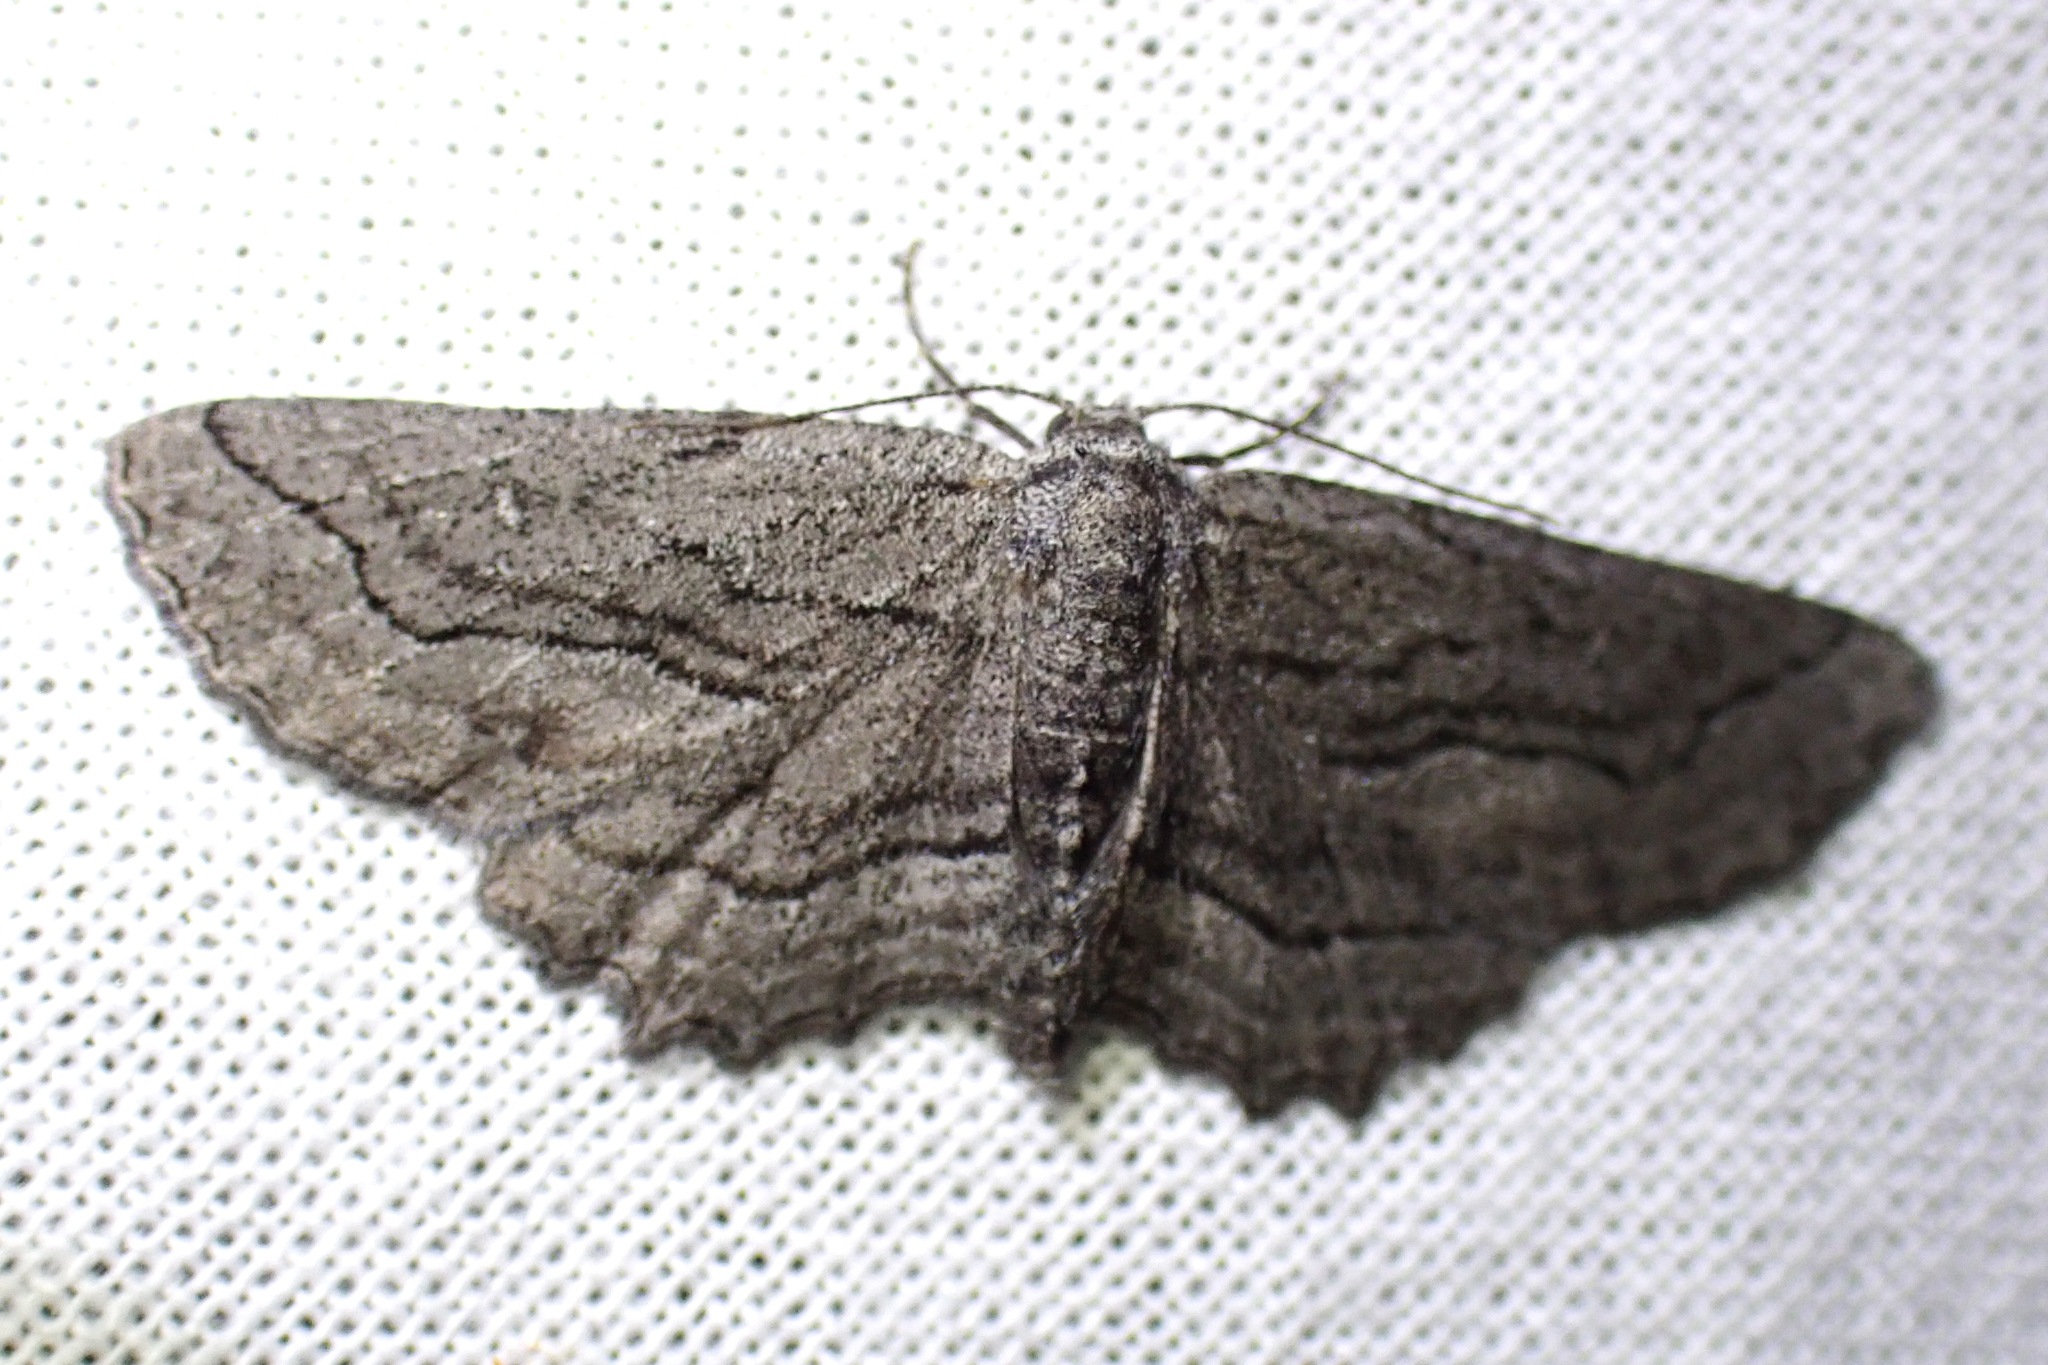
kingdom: Animalia
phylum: Arthropoda
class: Insecta
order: Lepidoptera
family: Geometridae
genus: Aethaloida
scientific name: Aethaloida packardaria
